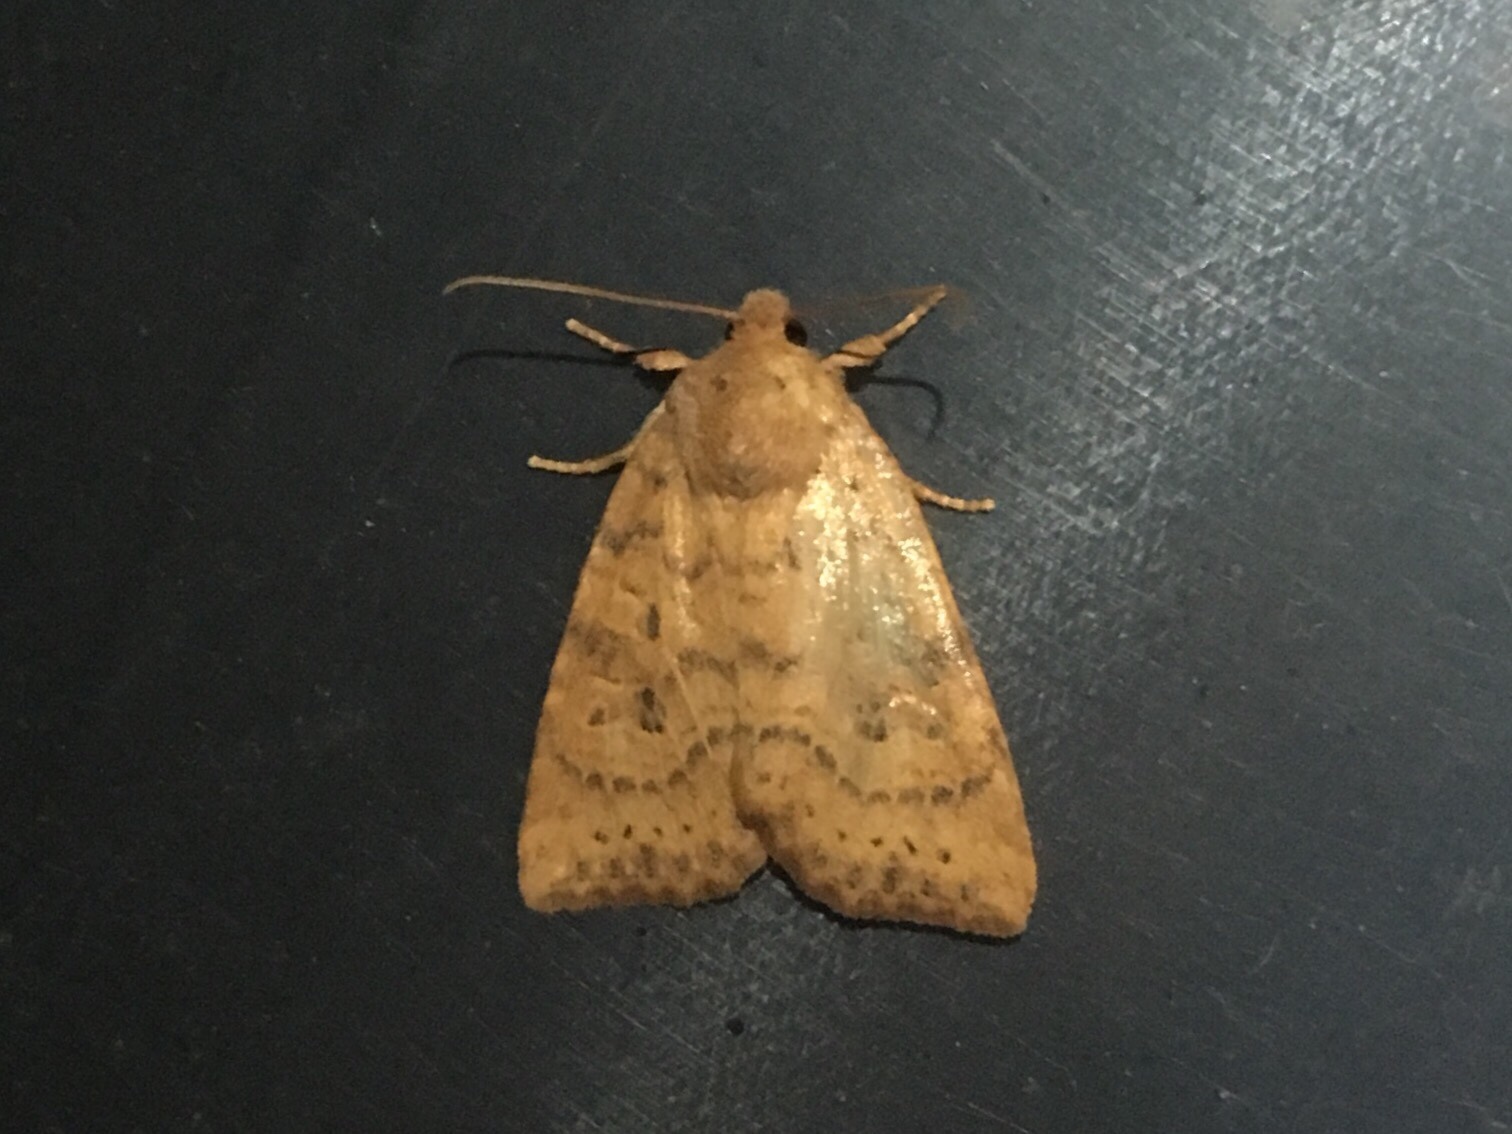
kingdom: Animalia
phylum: Arthropoda
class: Insecta
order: Lepidoptera
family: Noctuidae
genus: Anathix
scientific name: Anathix ralla
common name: Dotted sallow
